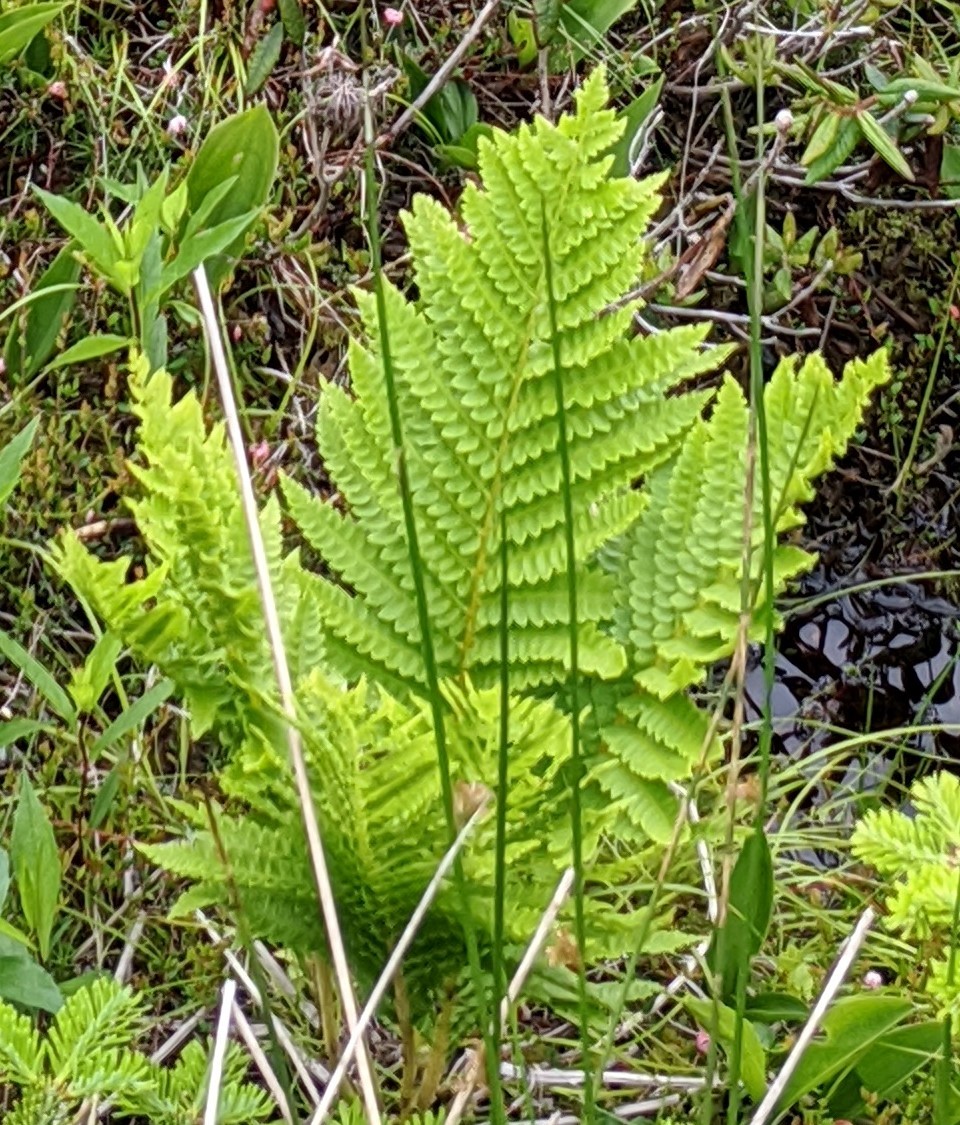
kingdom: Plantae
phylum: Tracheophyta
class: Polypodiopsida
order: Osmundales
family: Osmundaceae
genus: Osmundastrum
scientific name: Osmundastrum cinnamomeum
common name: Cinnamon fern
